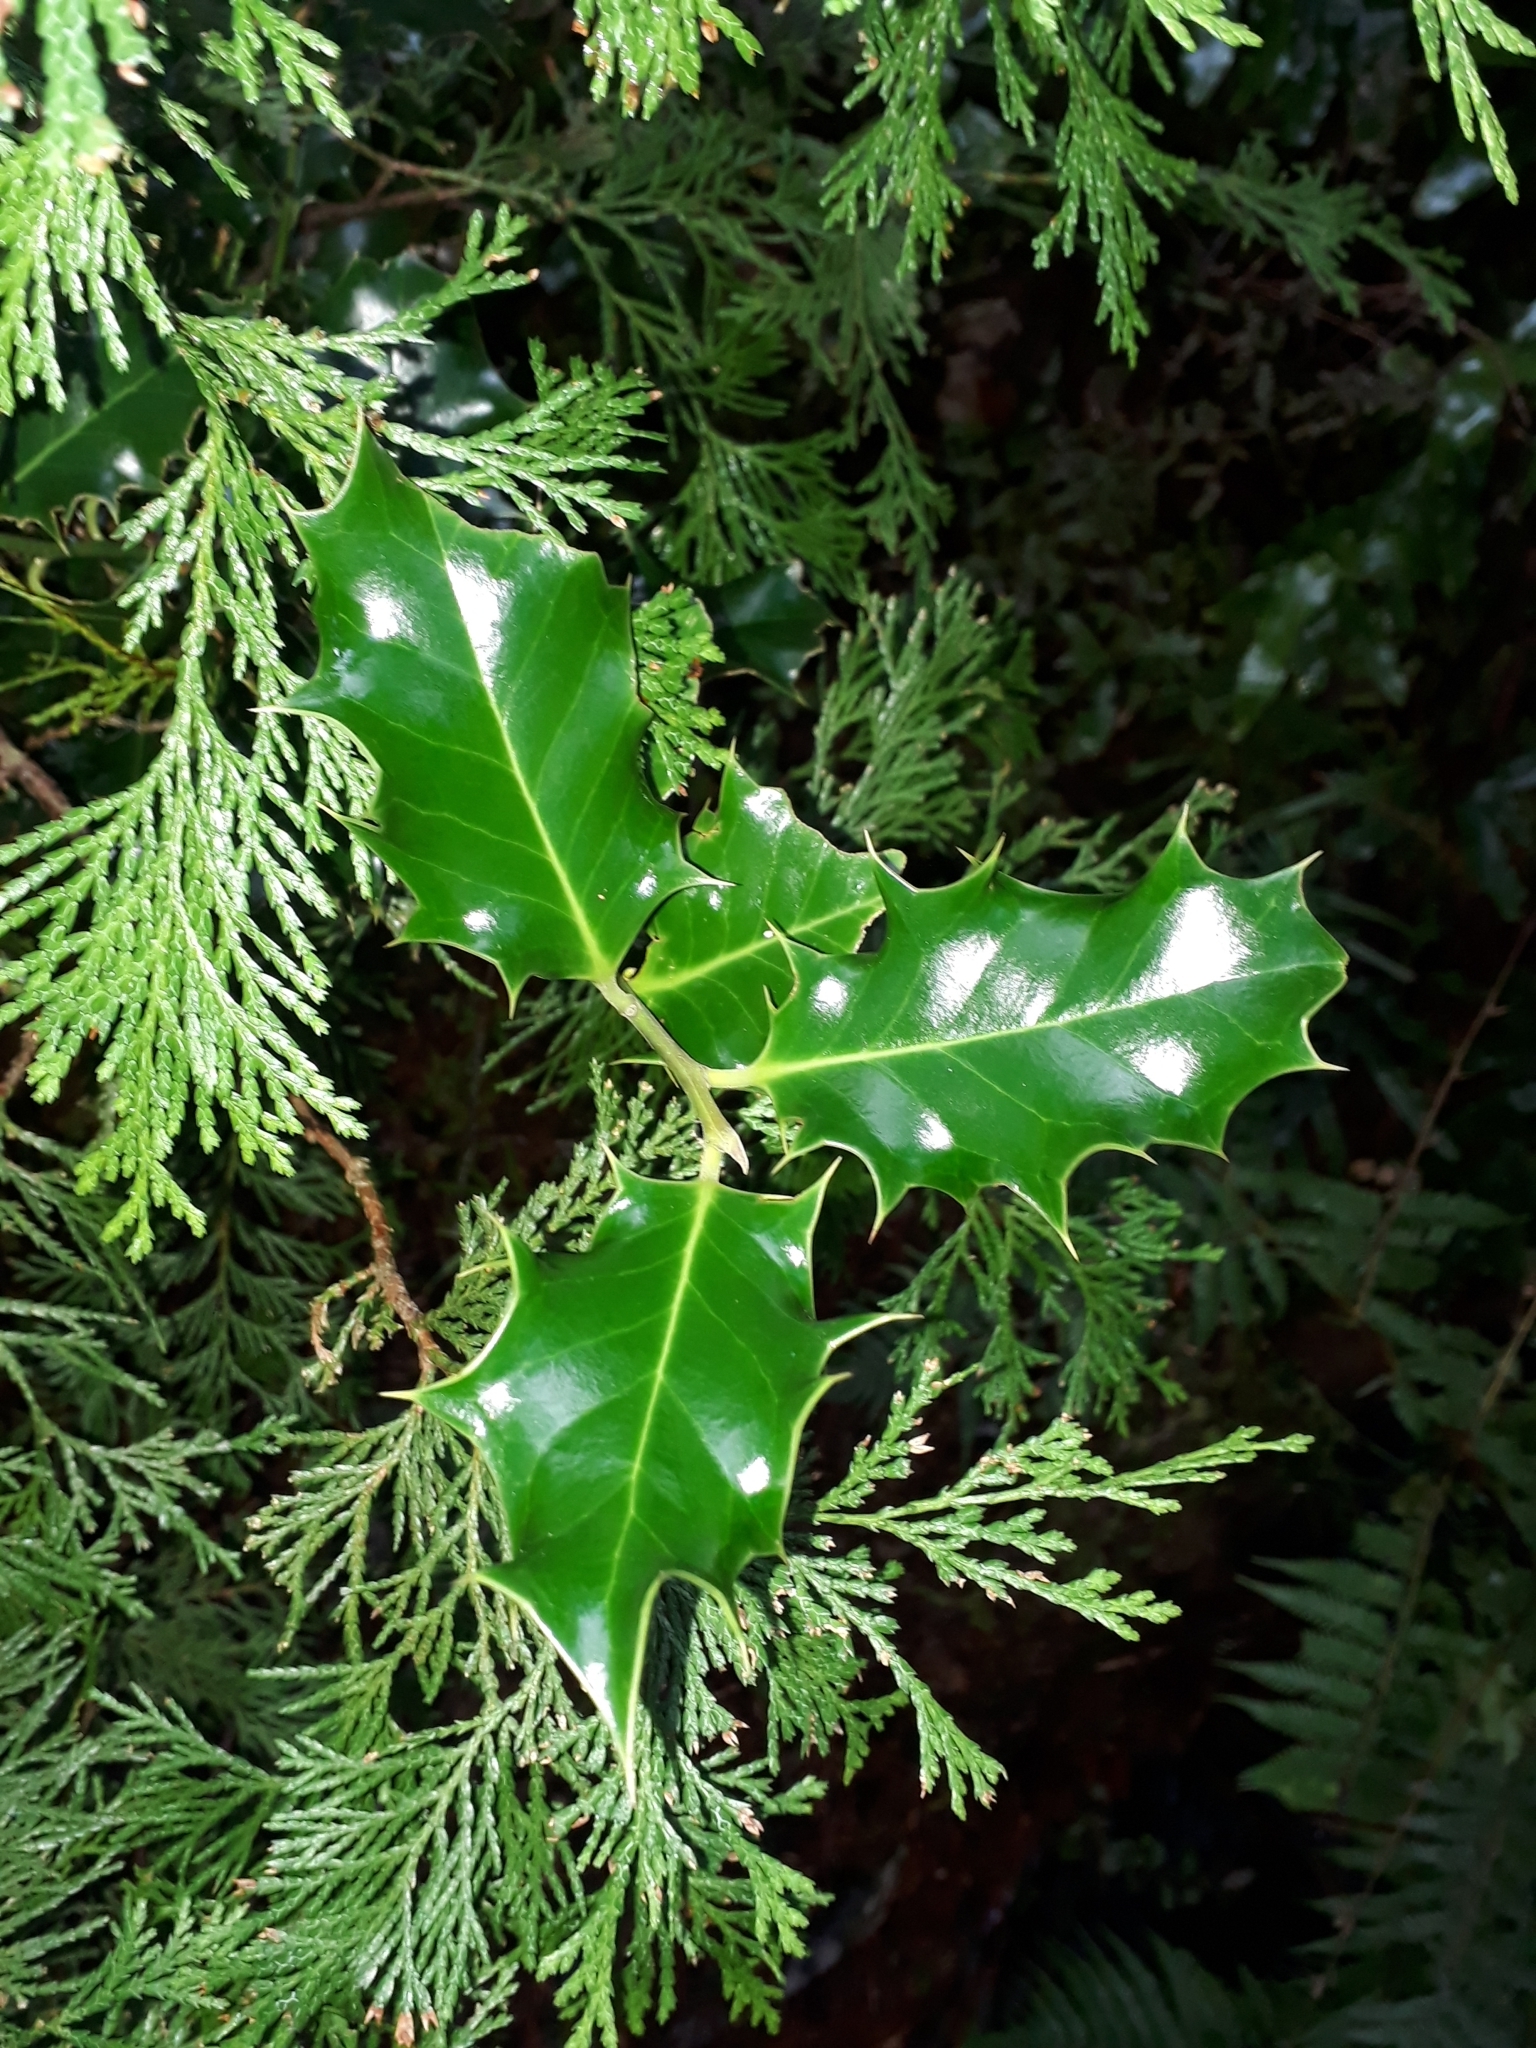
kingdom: Plantae
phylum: Tracheophyta
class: Magnoliopsida
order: Aquifoliales
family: Aquifoliaceae
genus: Ilex
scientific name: Ilex aquifolium
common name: English holly
